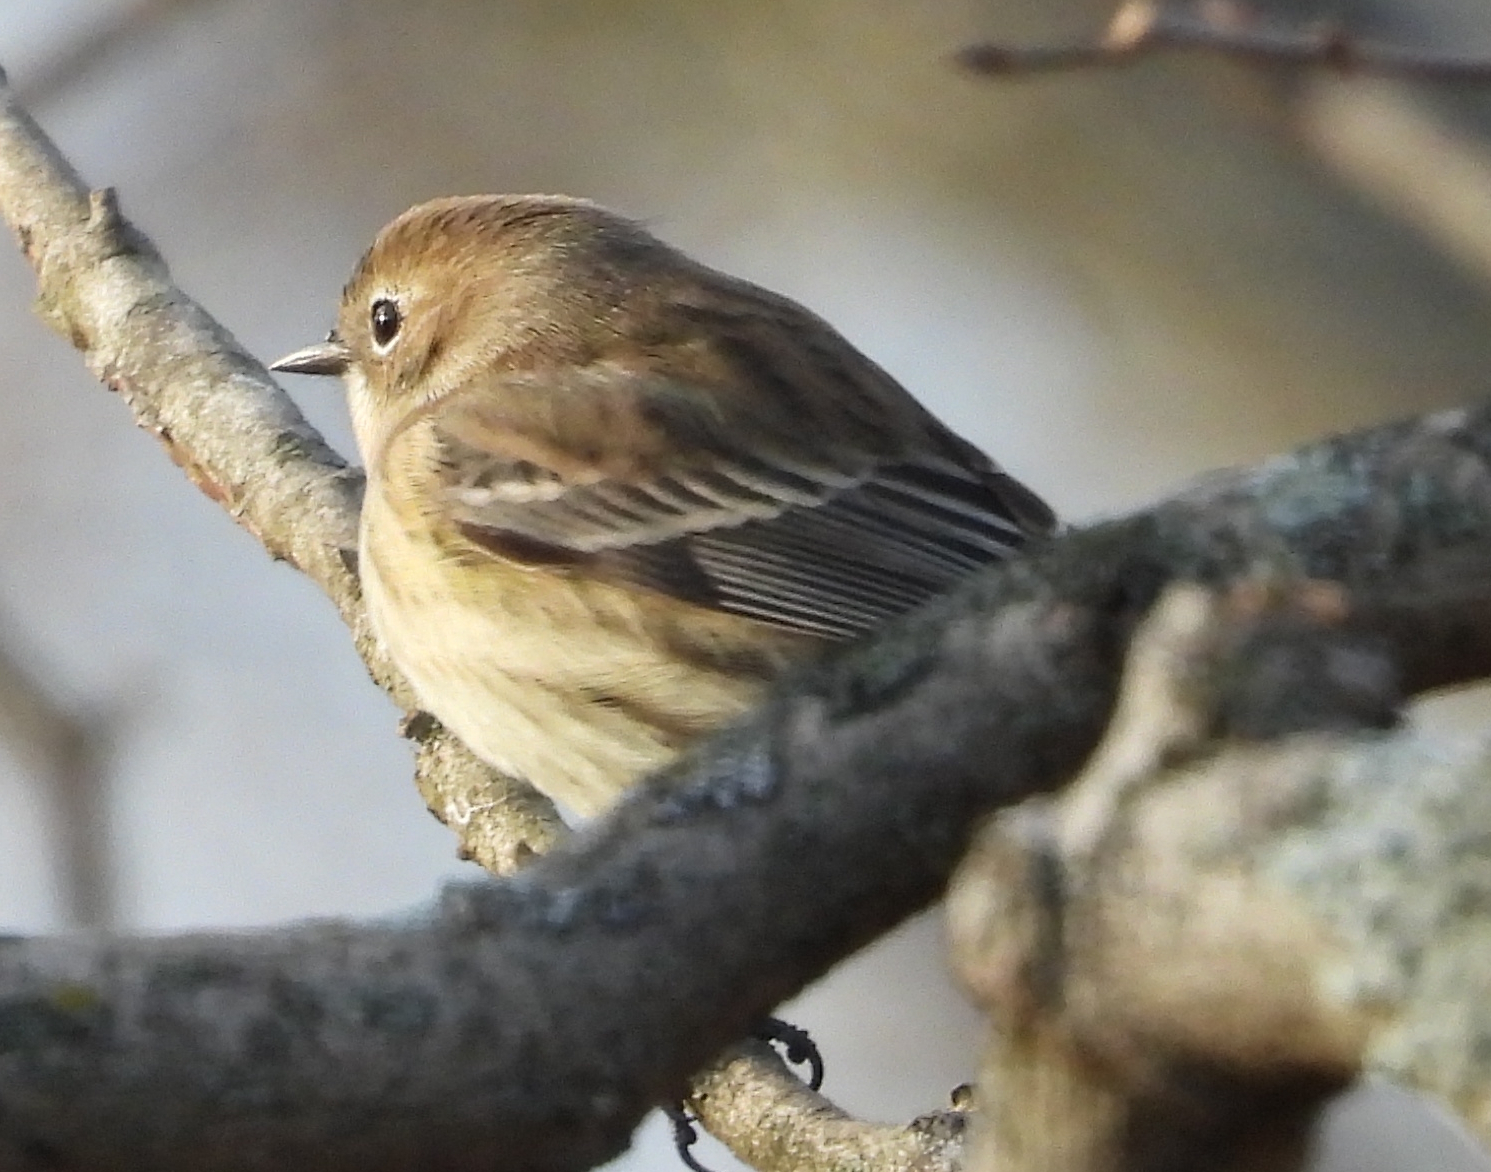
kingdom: Animalia
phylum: Chordata
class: Aves
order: Passeriformes
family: Parulidae
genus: Setophaga
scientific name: Setophaga coronata
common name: Myrtle warbler
